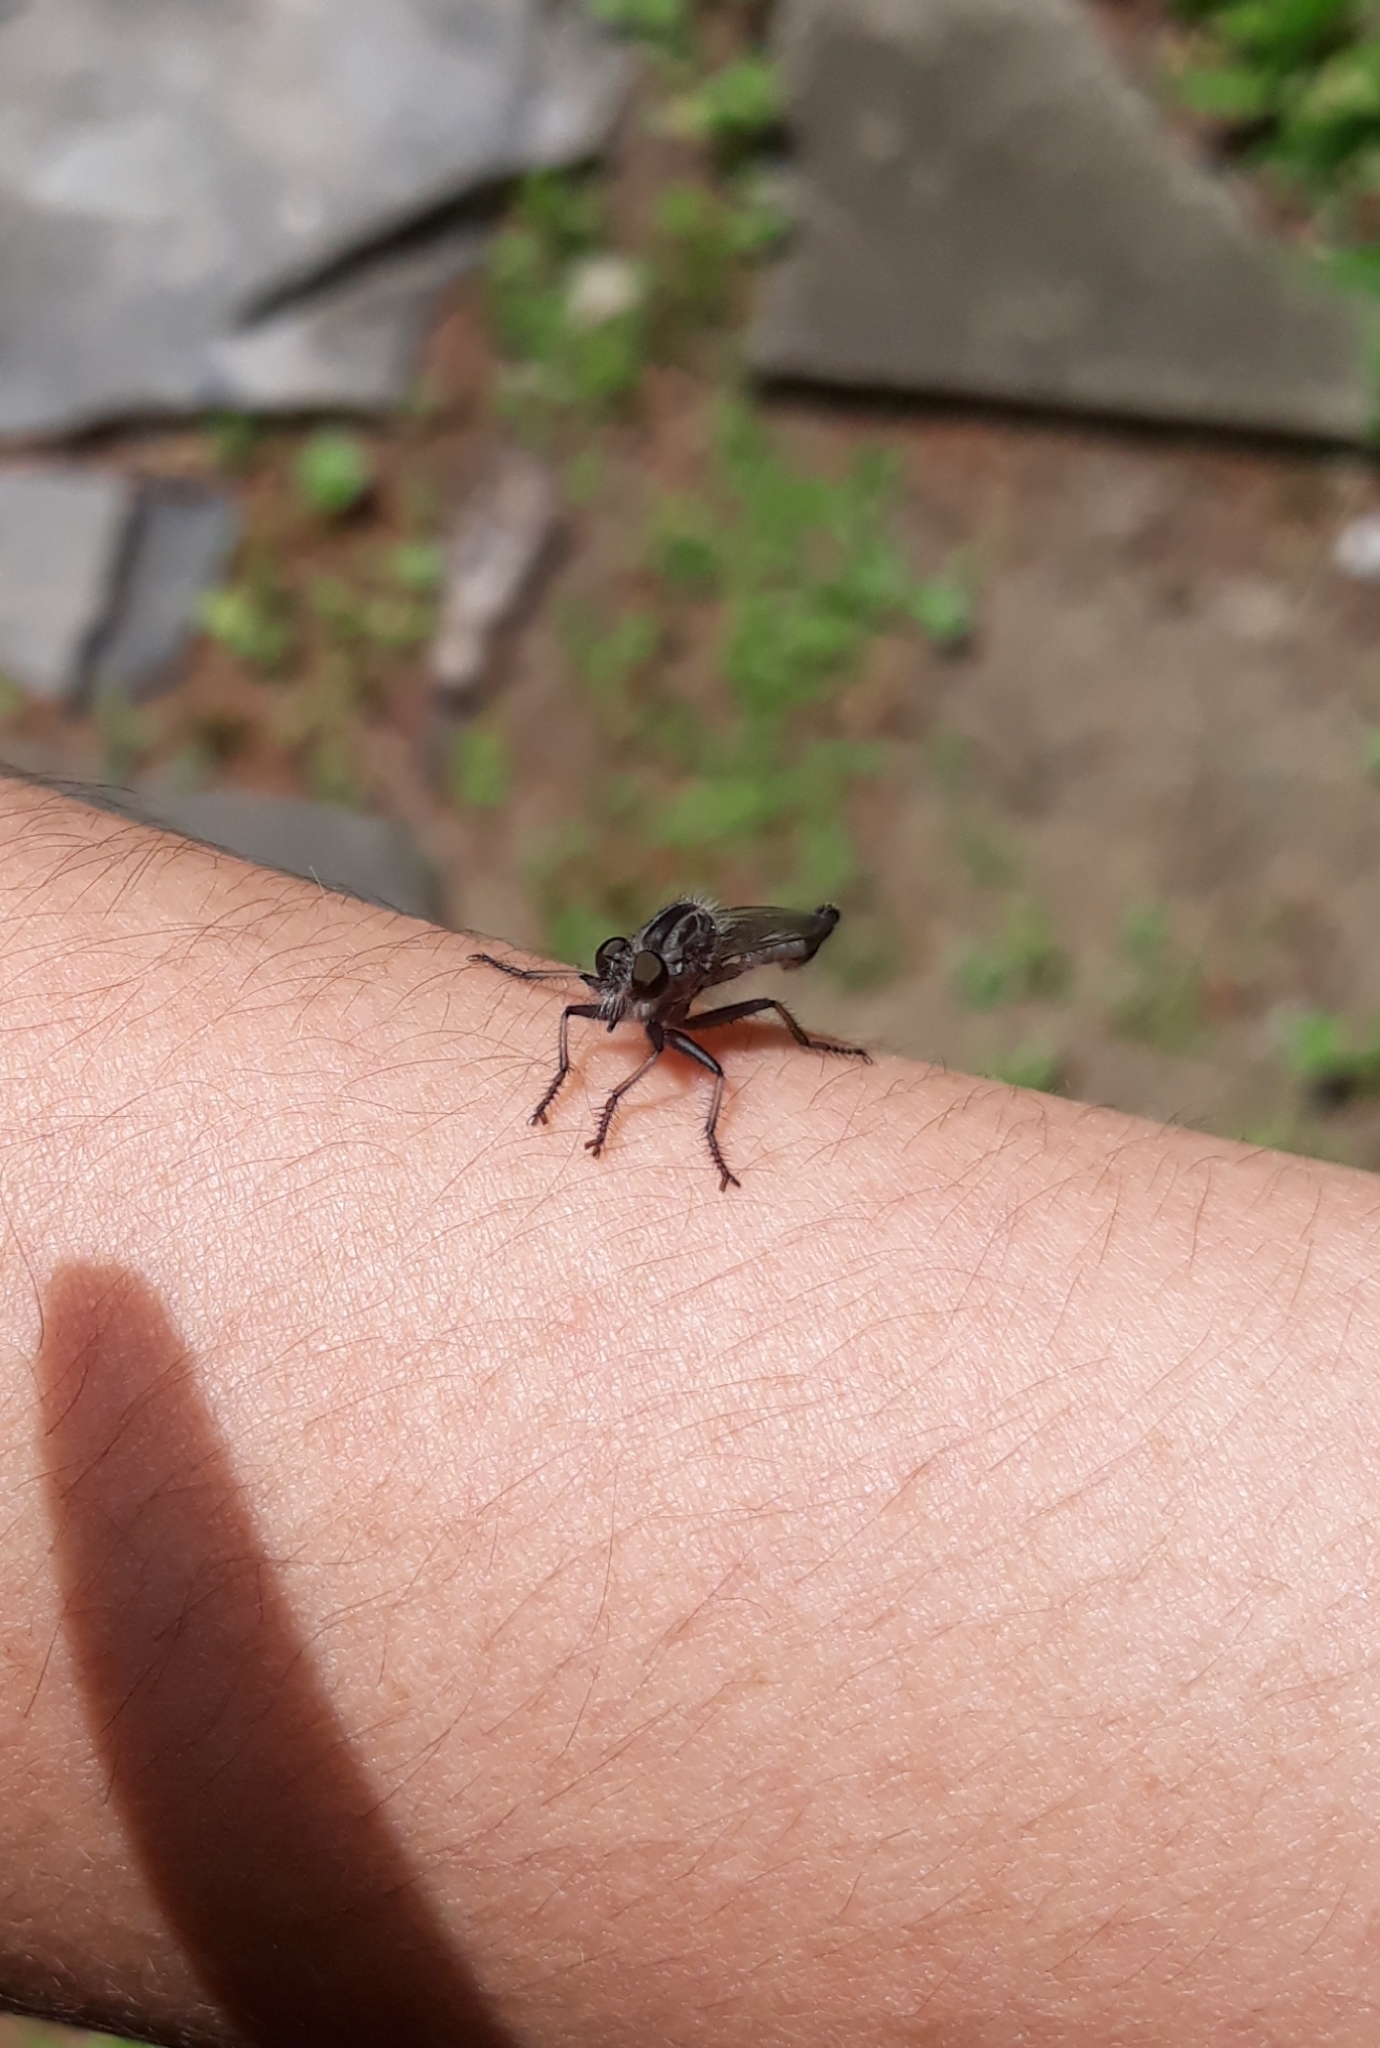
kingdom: Animalia
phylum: Arthropoda
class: Insecta
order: Diptera
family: Asilidae
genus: Efferia
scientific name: Efferia aestuans
